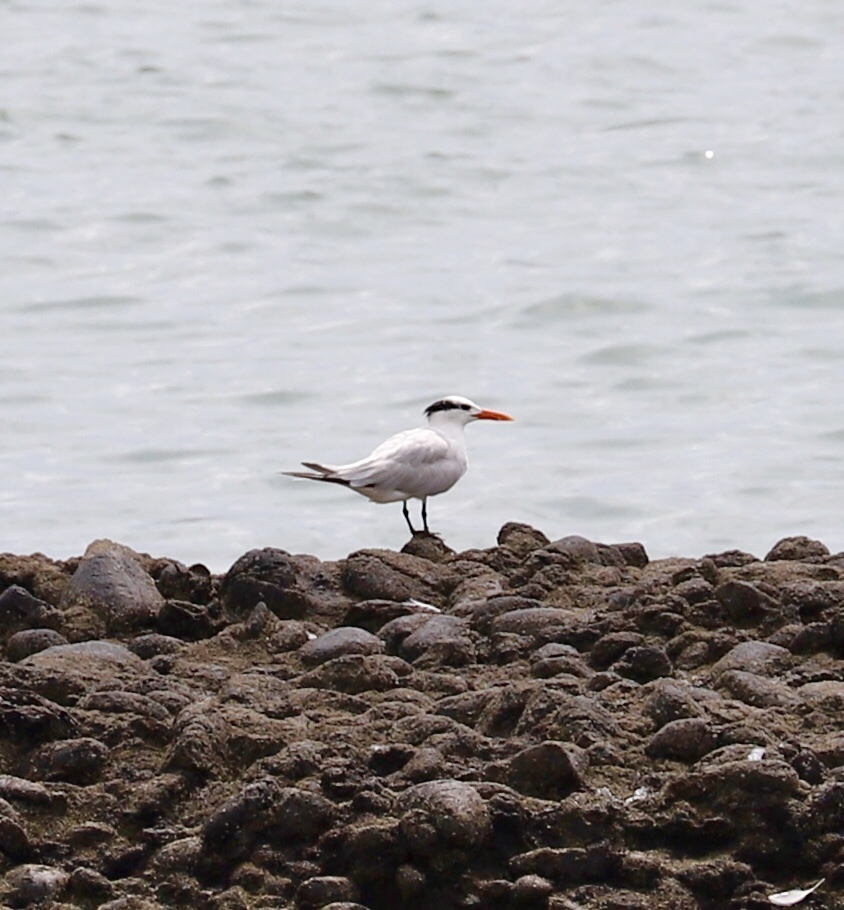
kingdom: Animalia
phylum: Chordata
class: Aves
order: Charadriiformes
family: Laridae
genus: Thalasseus
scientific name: Thalasseus maximus
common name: Royal tern
